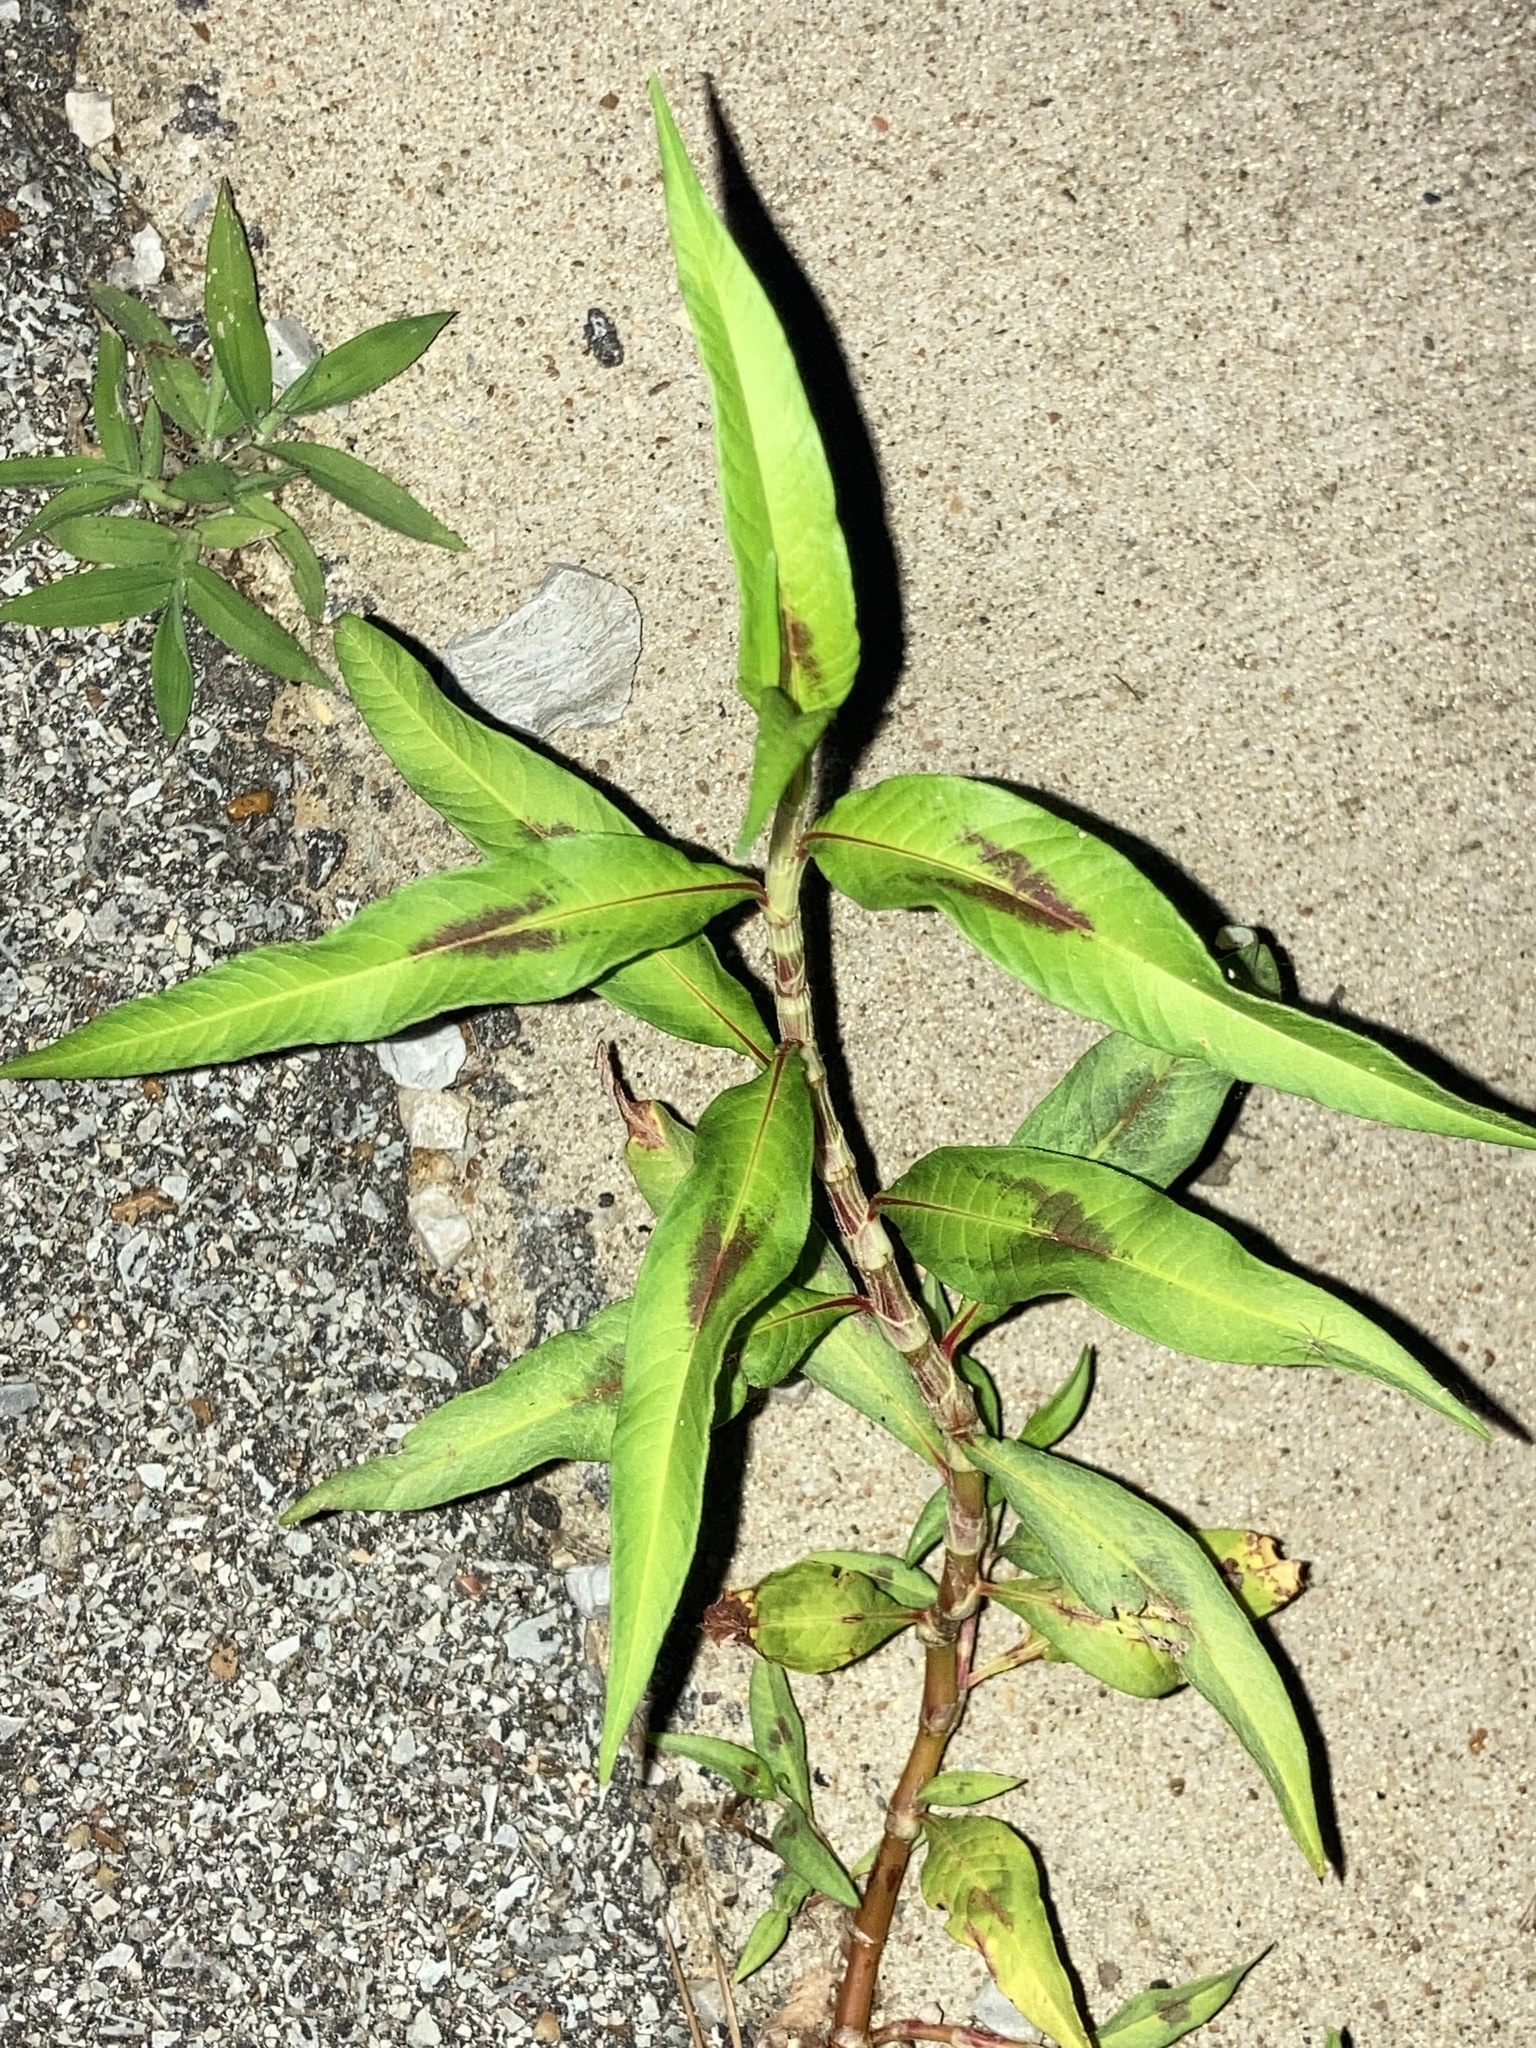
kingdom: Plantae
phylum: Tracheophyta
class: Magnoliopsida
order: Caryophyllales
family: Polygonaceae
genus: Persicaria
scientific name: Persicaria lapathifolia
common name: Curlytop knotweed
